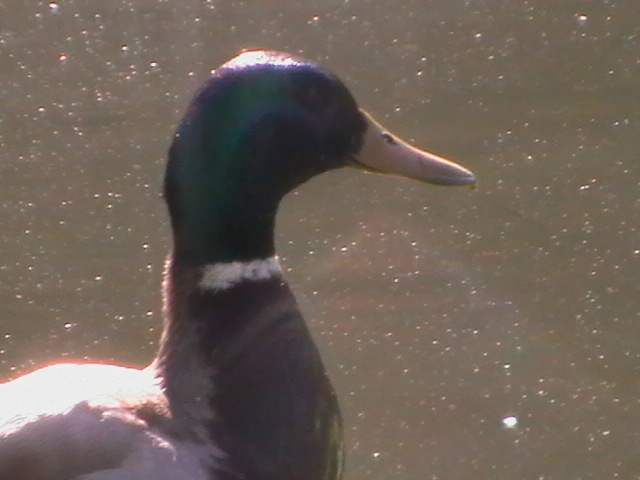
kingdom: Animalia
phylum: Chordata
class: Aves
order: Anseriformes
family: Anatidae
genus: Anas
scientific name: Anas platyrhynchos
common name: Mallard
